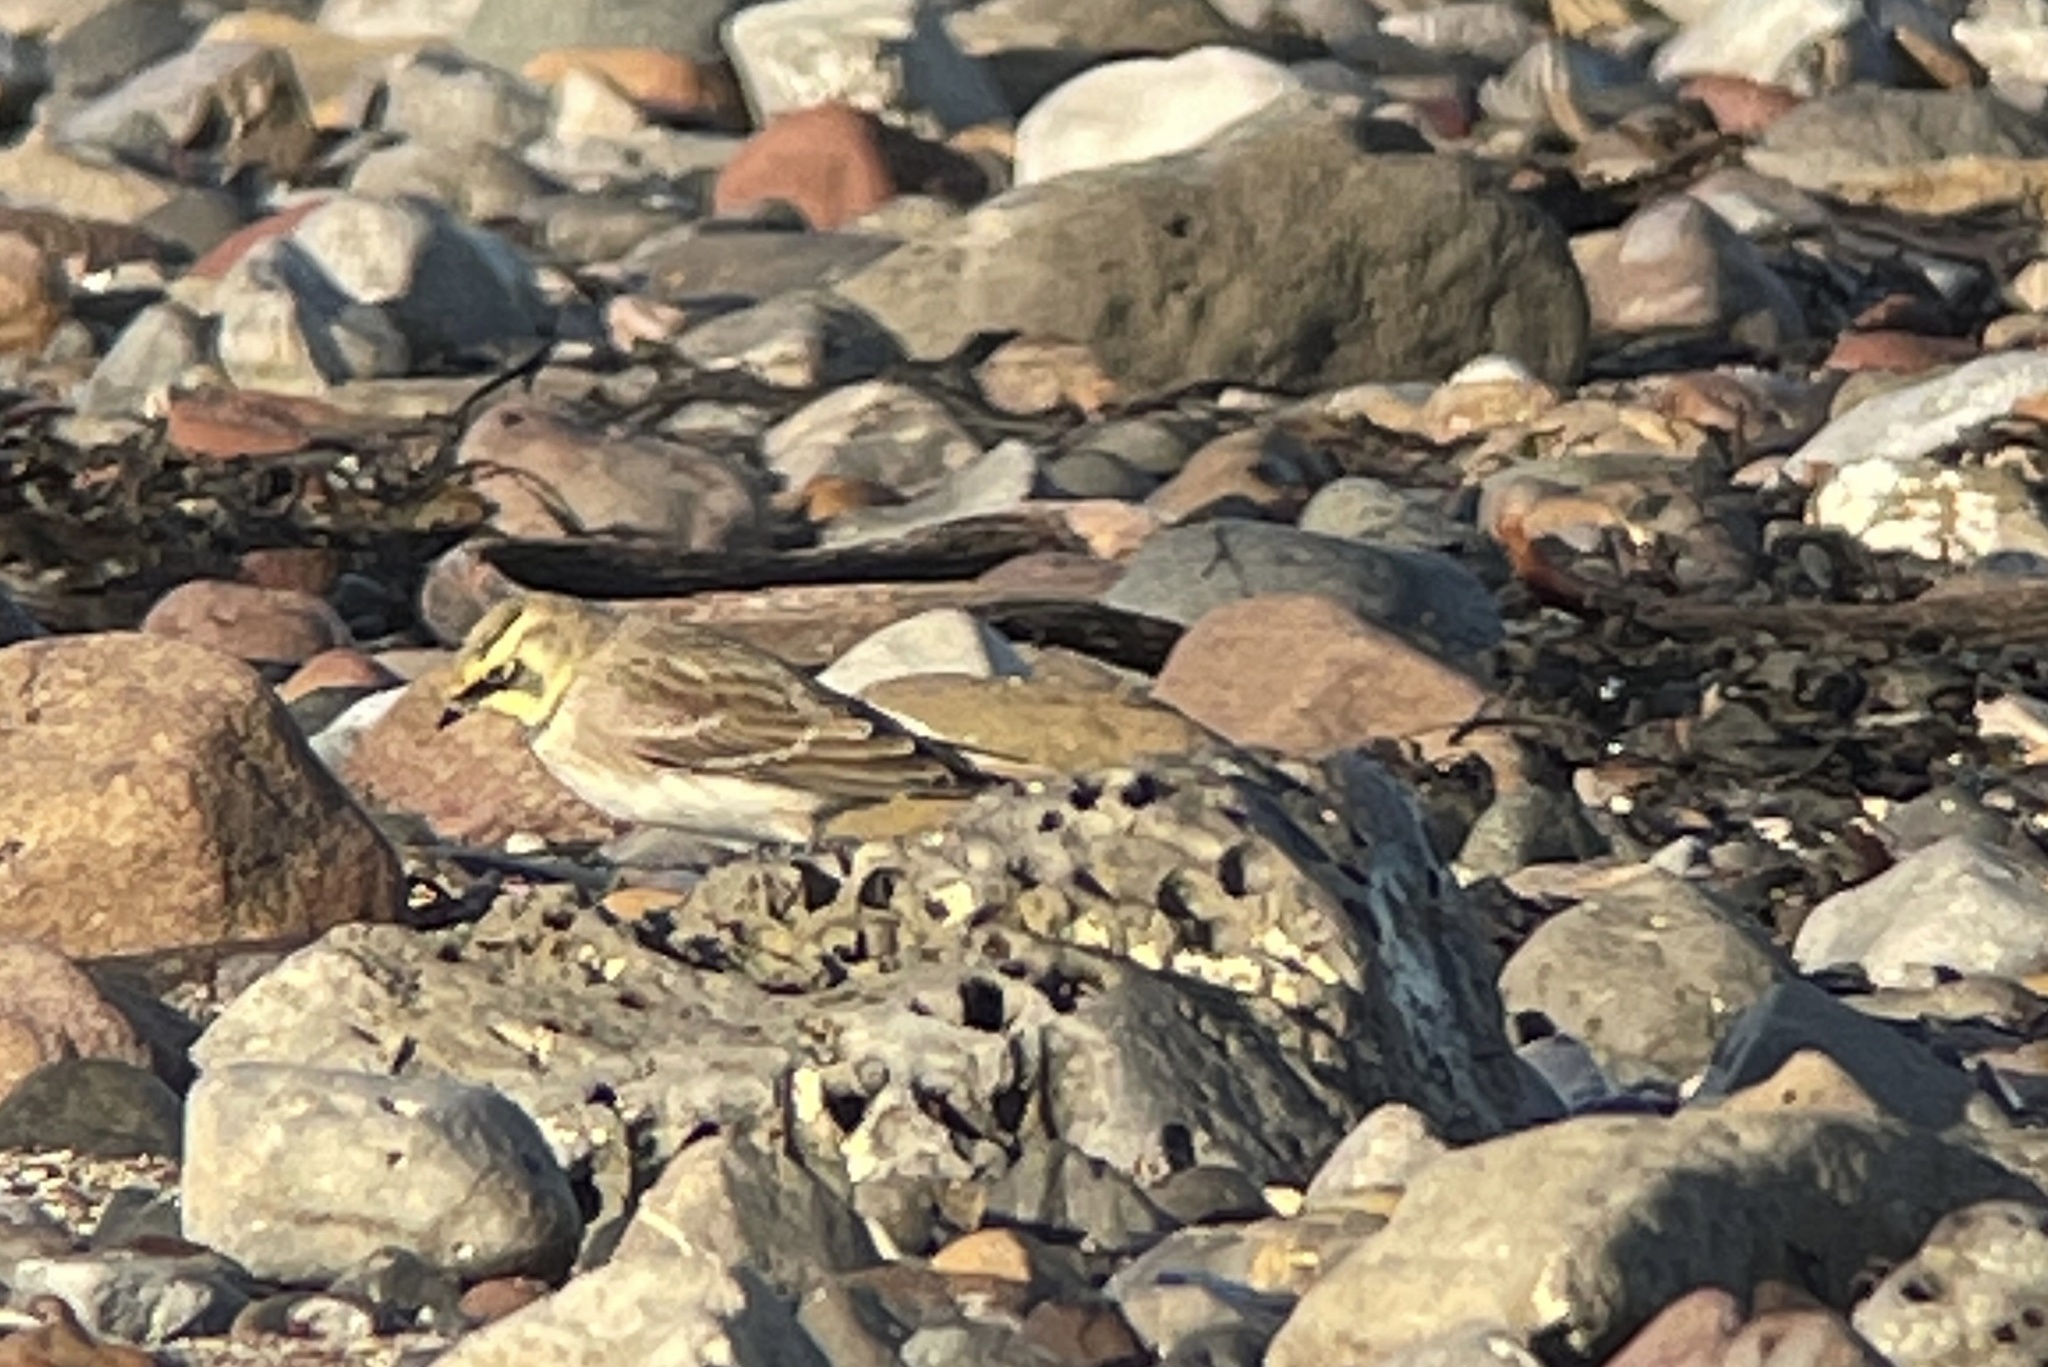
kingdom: Animalia
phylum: Chordata
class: Aves
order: Passeriformes
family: Alaudidae
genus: Eremophila
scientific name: Eremophila alpestris
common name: Horned lark
